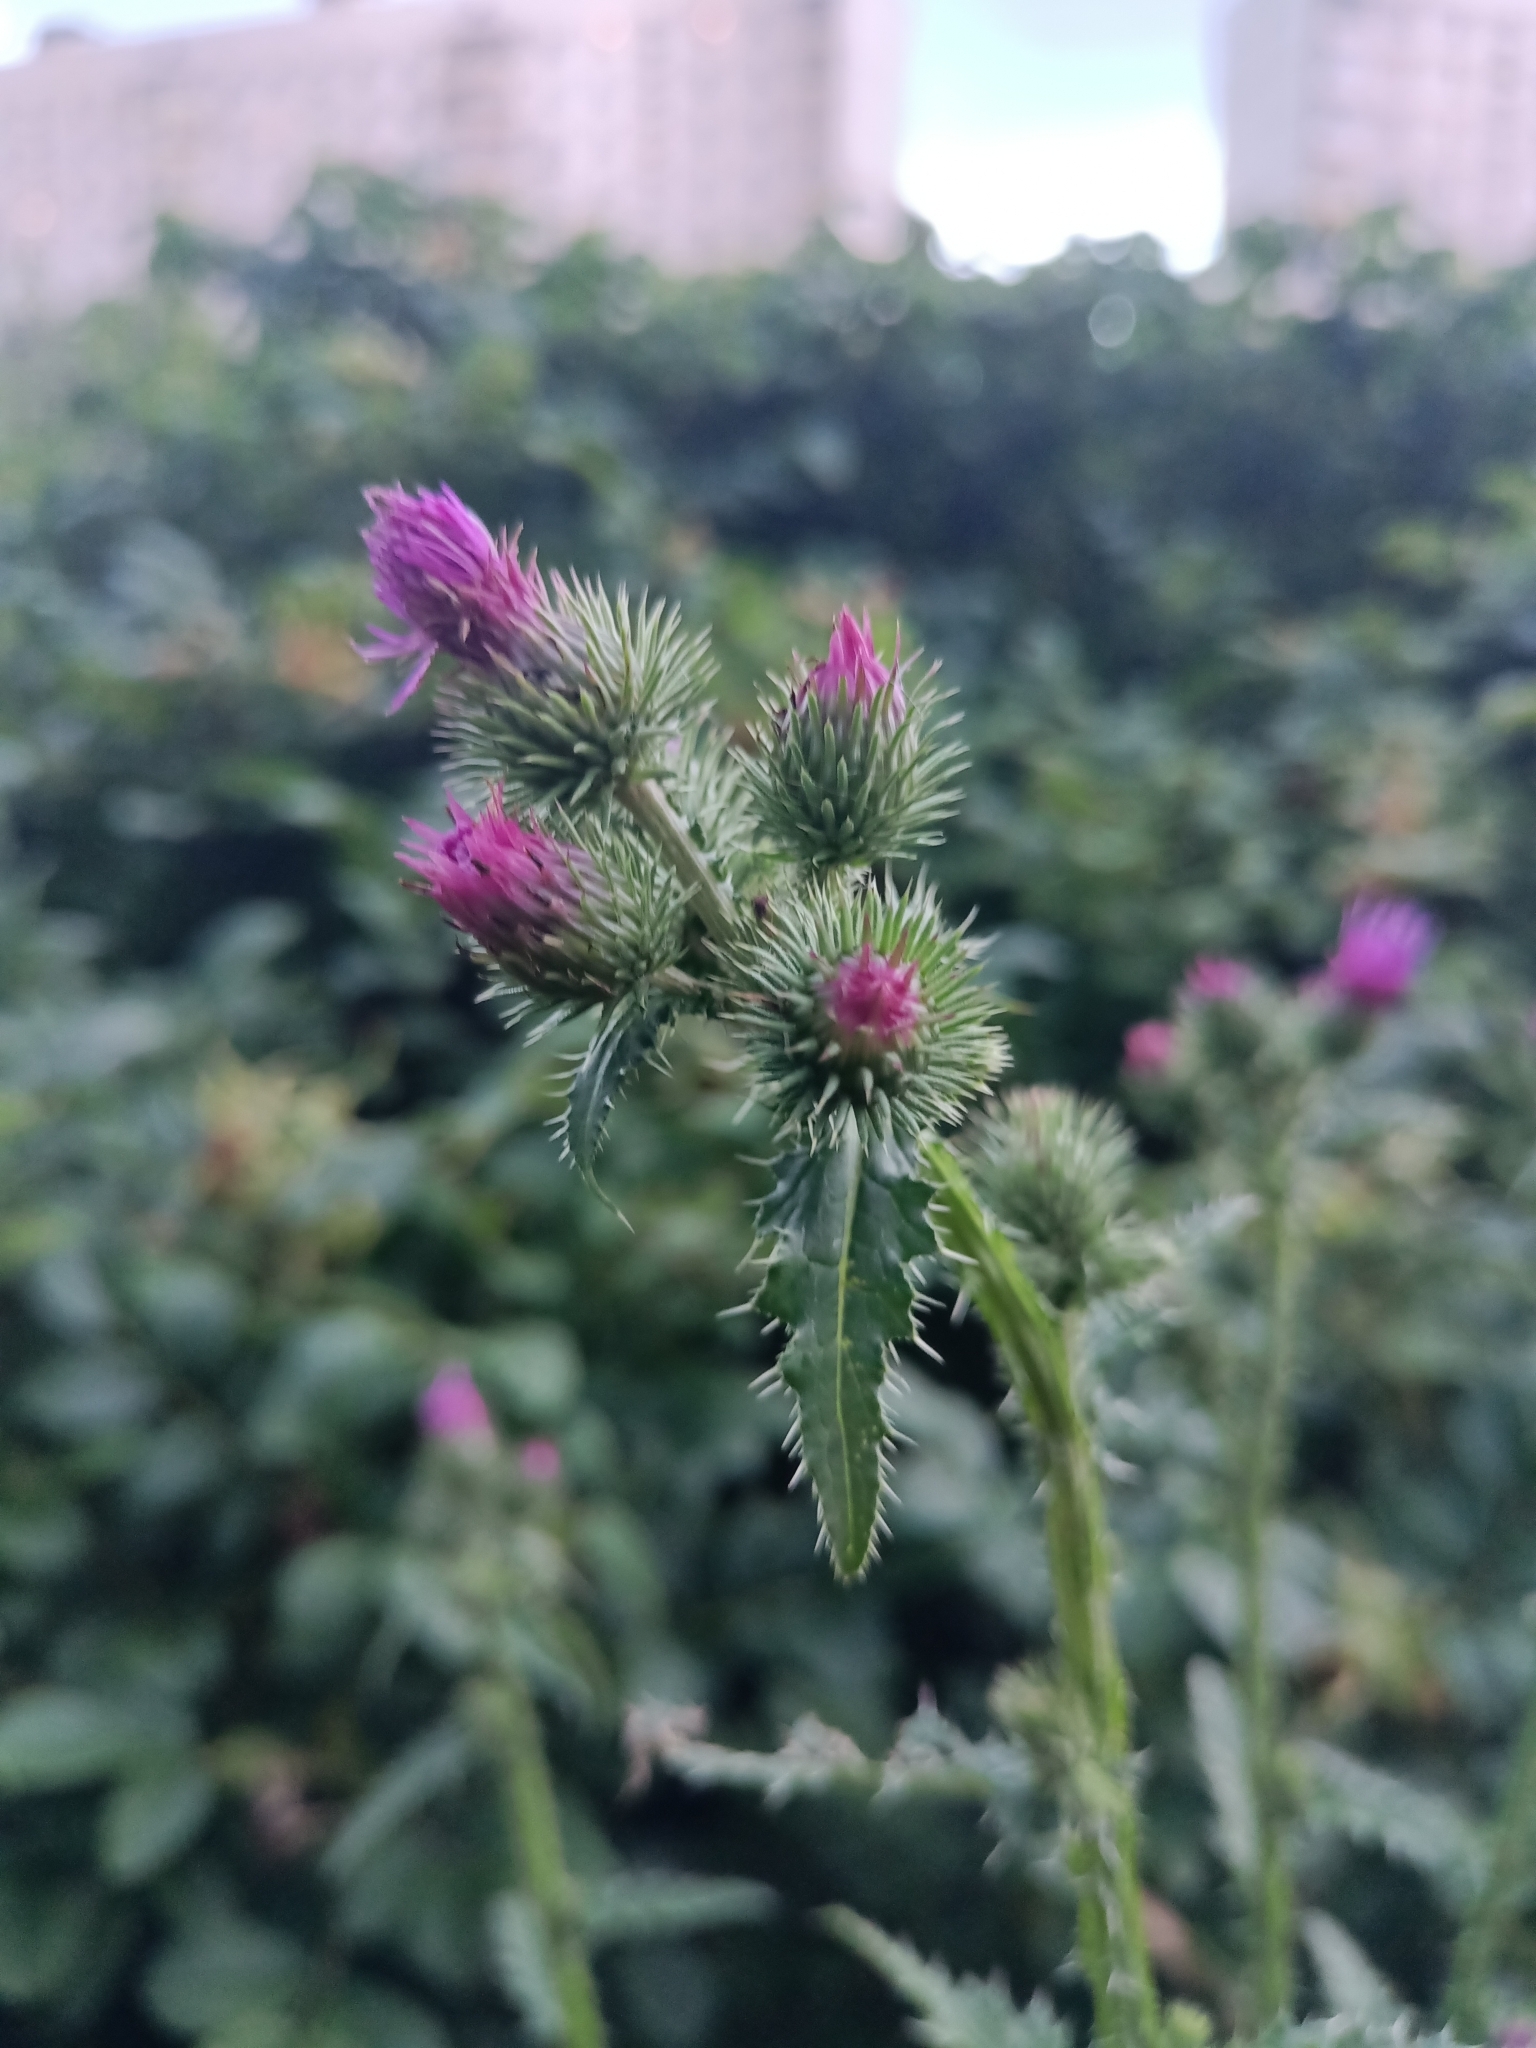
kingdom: Plantae
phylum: Tracheophyta
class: Magnoliopsida
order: Asterales
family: Asteraceae
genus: Carduus
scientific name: Carduus crispus
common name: Welted thistle
